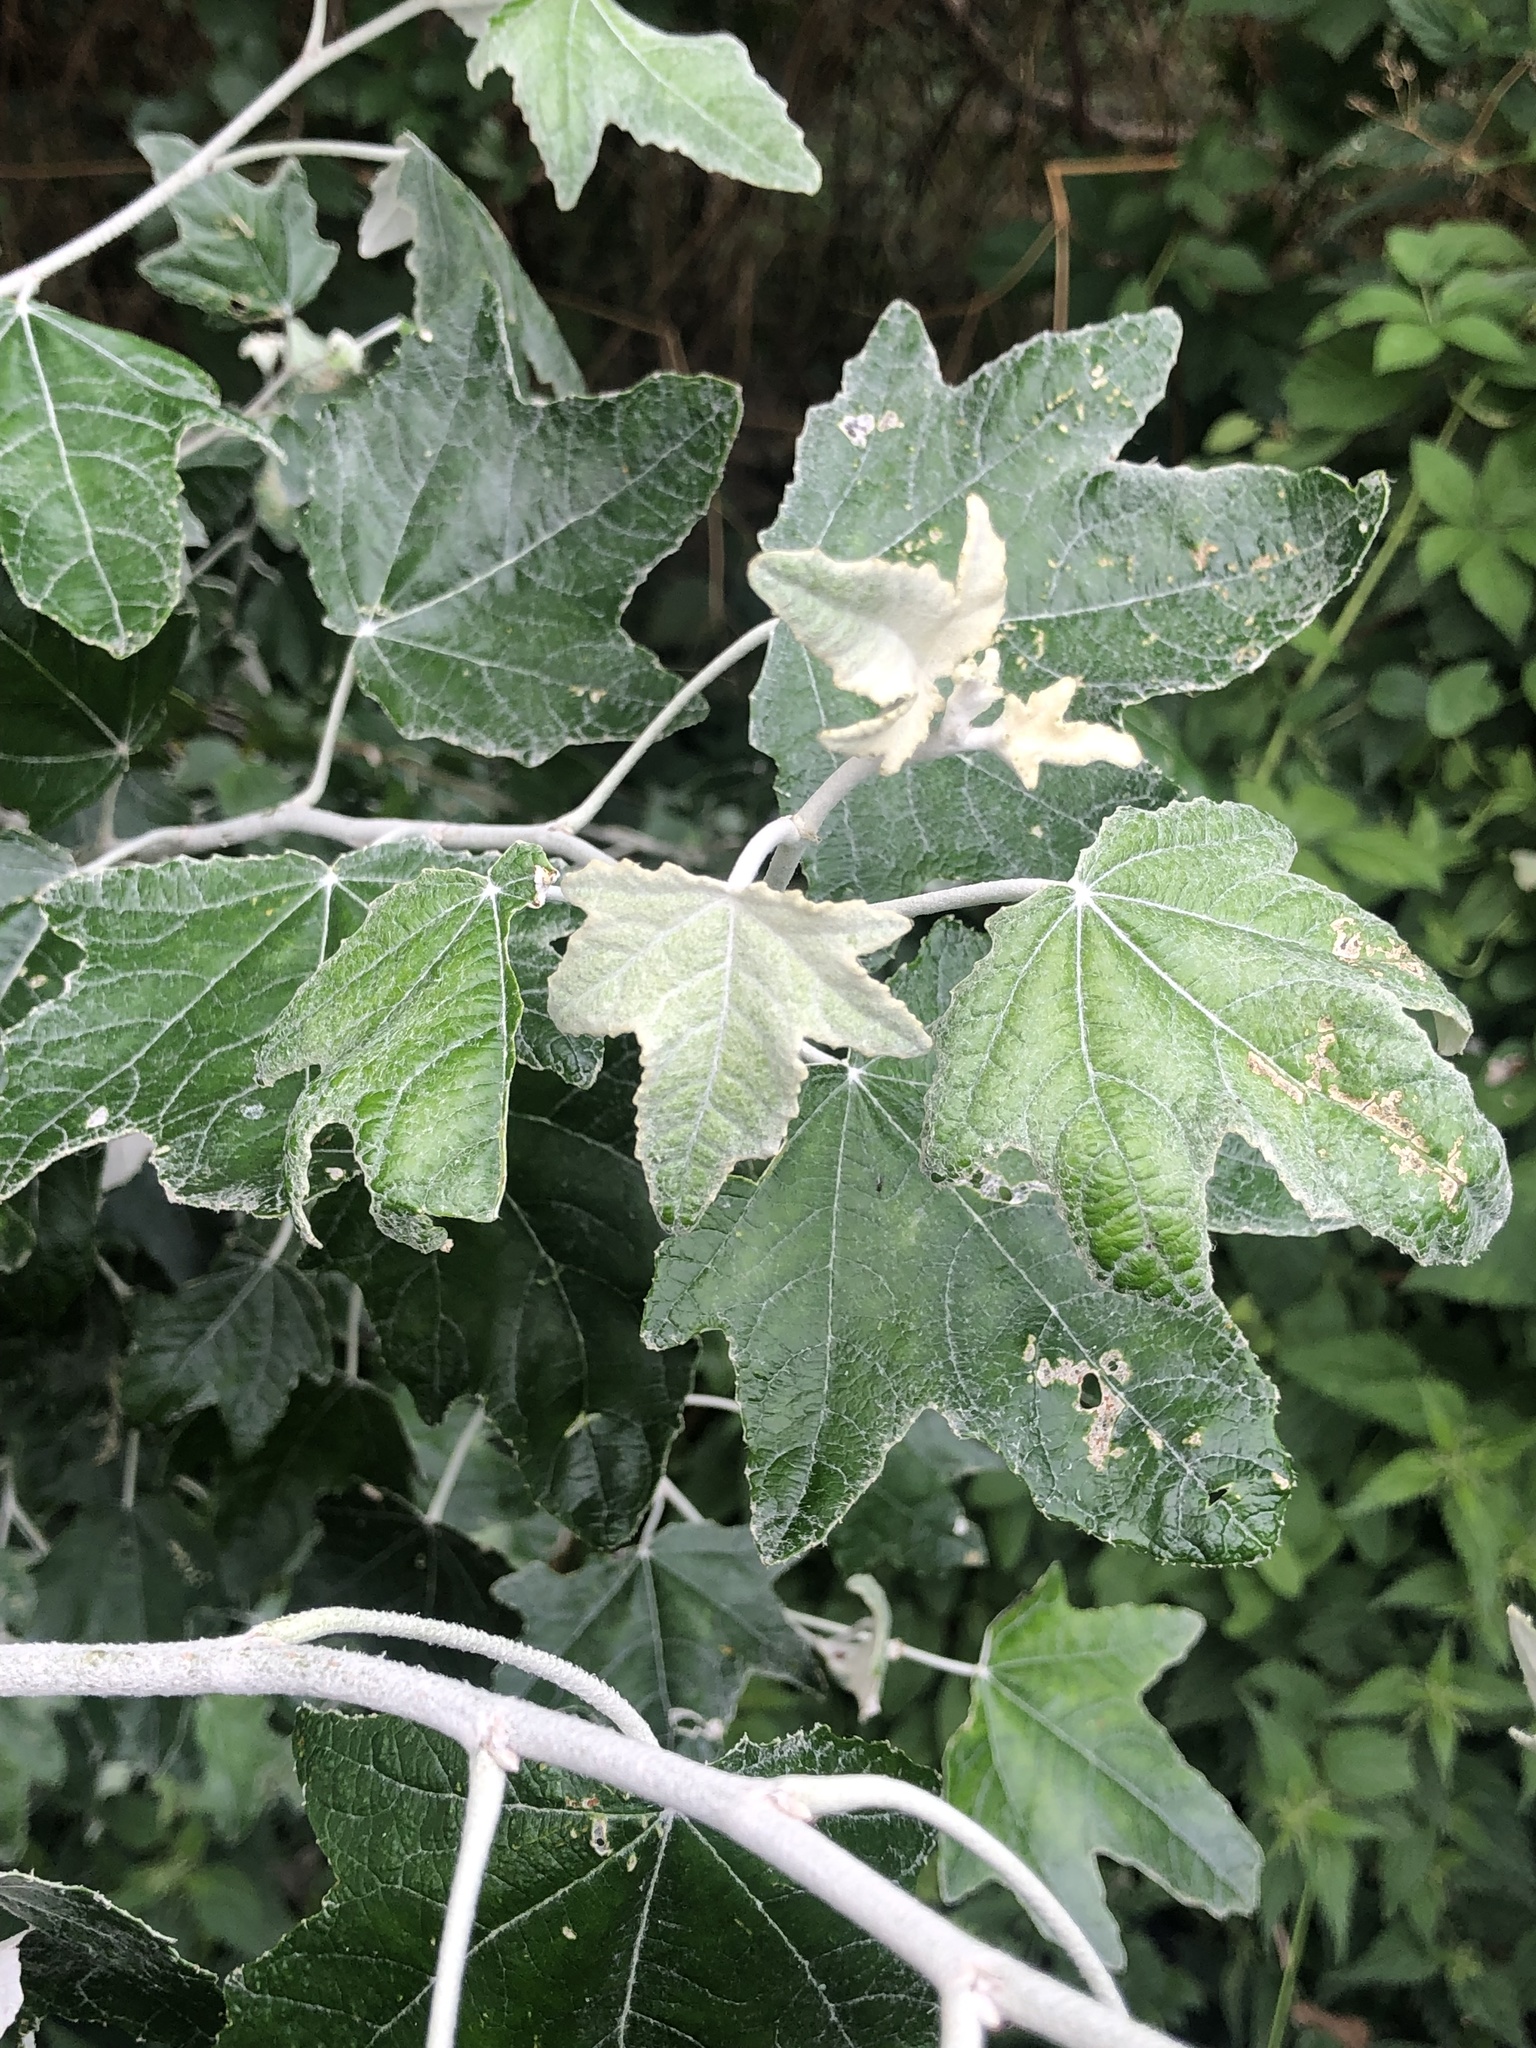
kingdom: Plantae
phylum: Tracheophyta
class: Magnoliopsida
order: Malpighiales
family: Salicaceae
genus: Populus
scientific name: Populus alba
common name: White poplar
